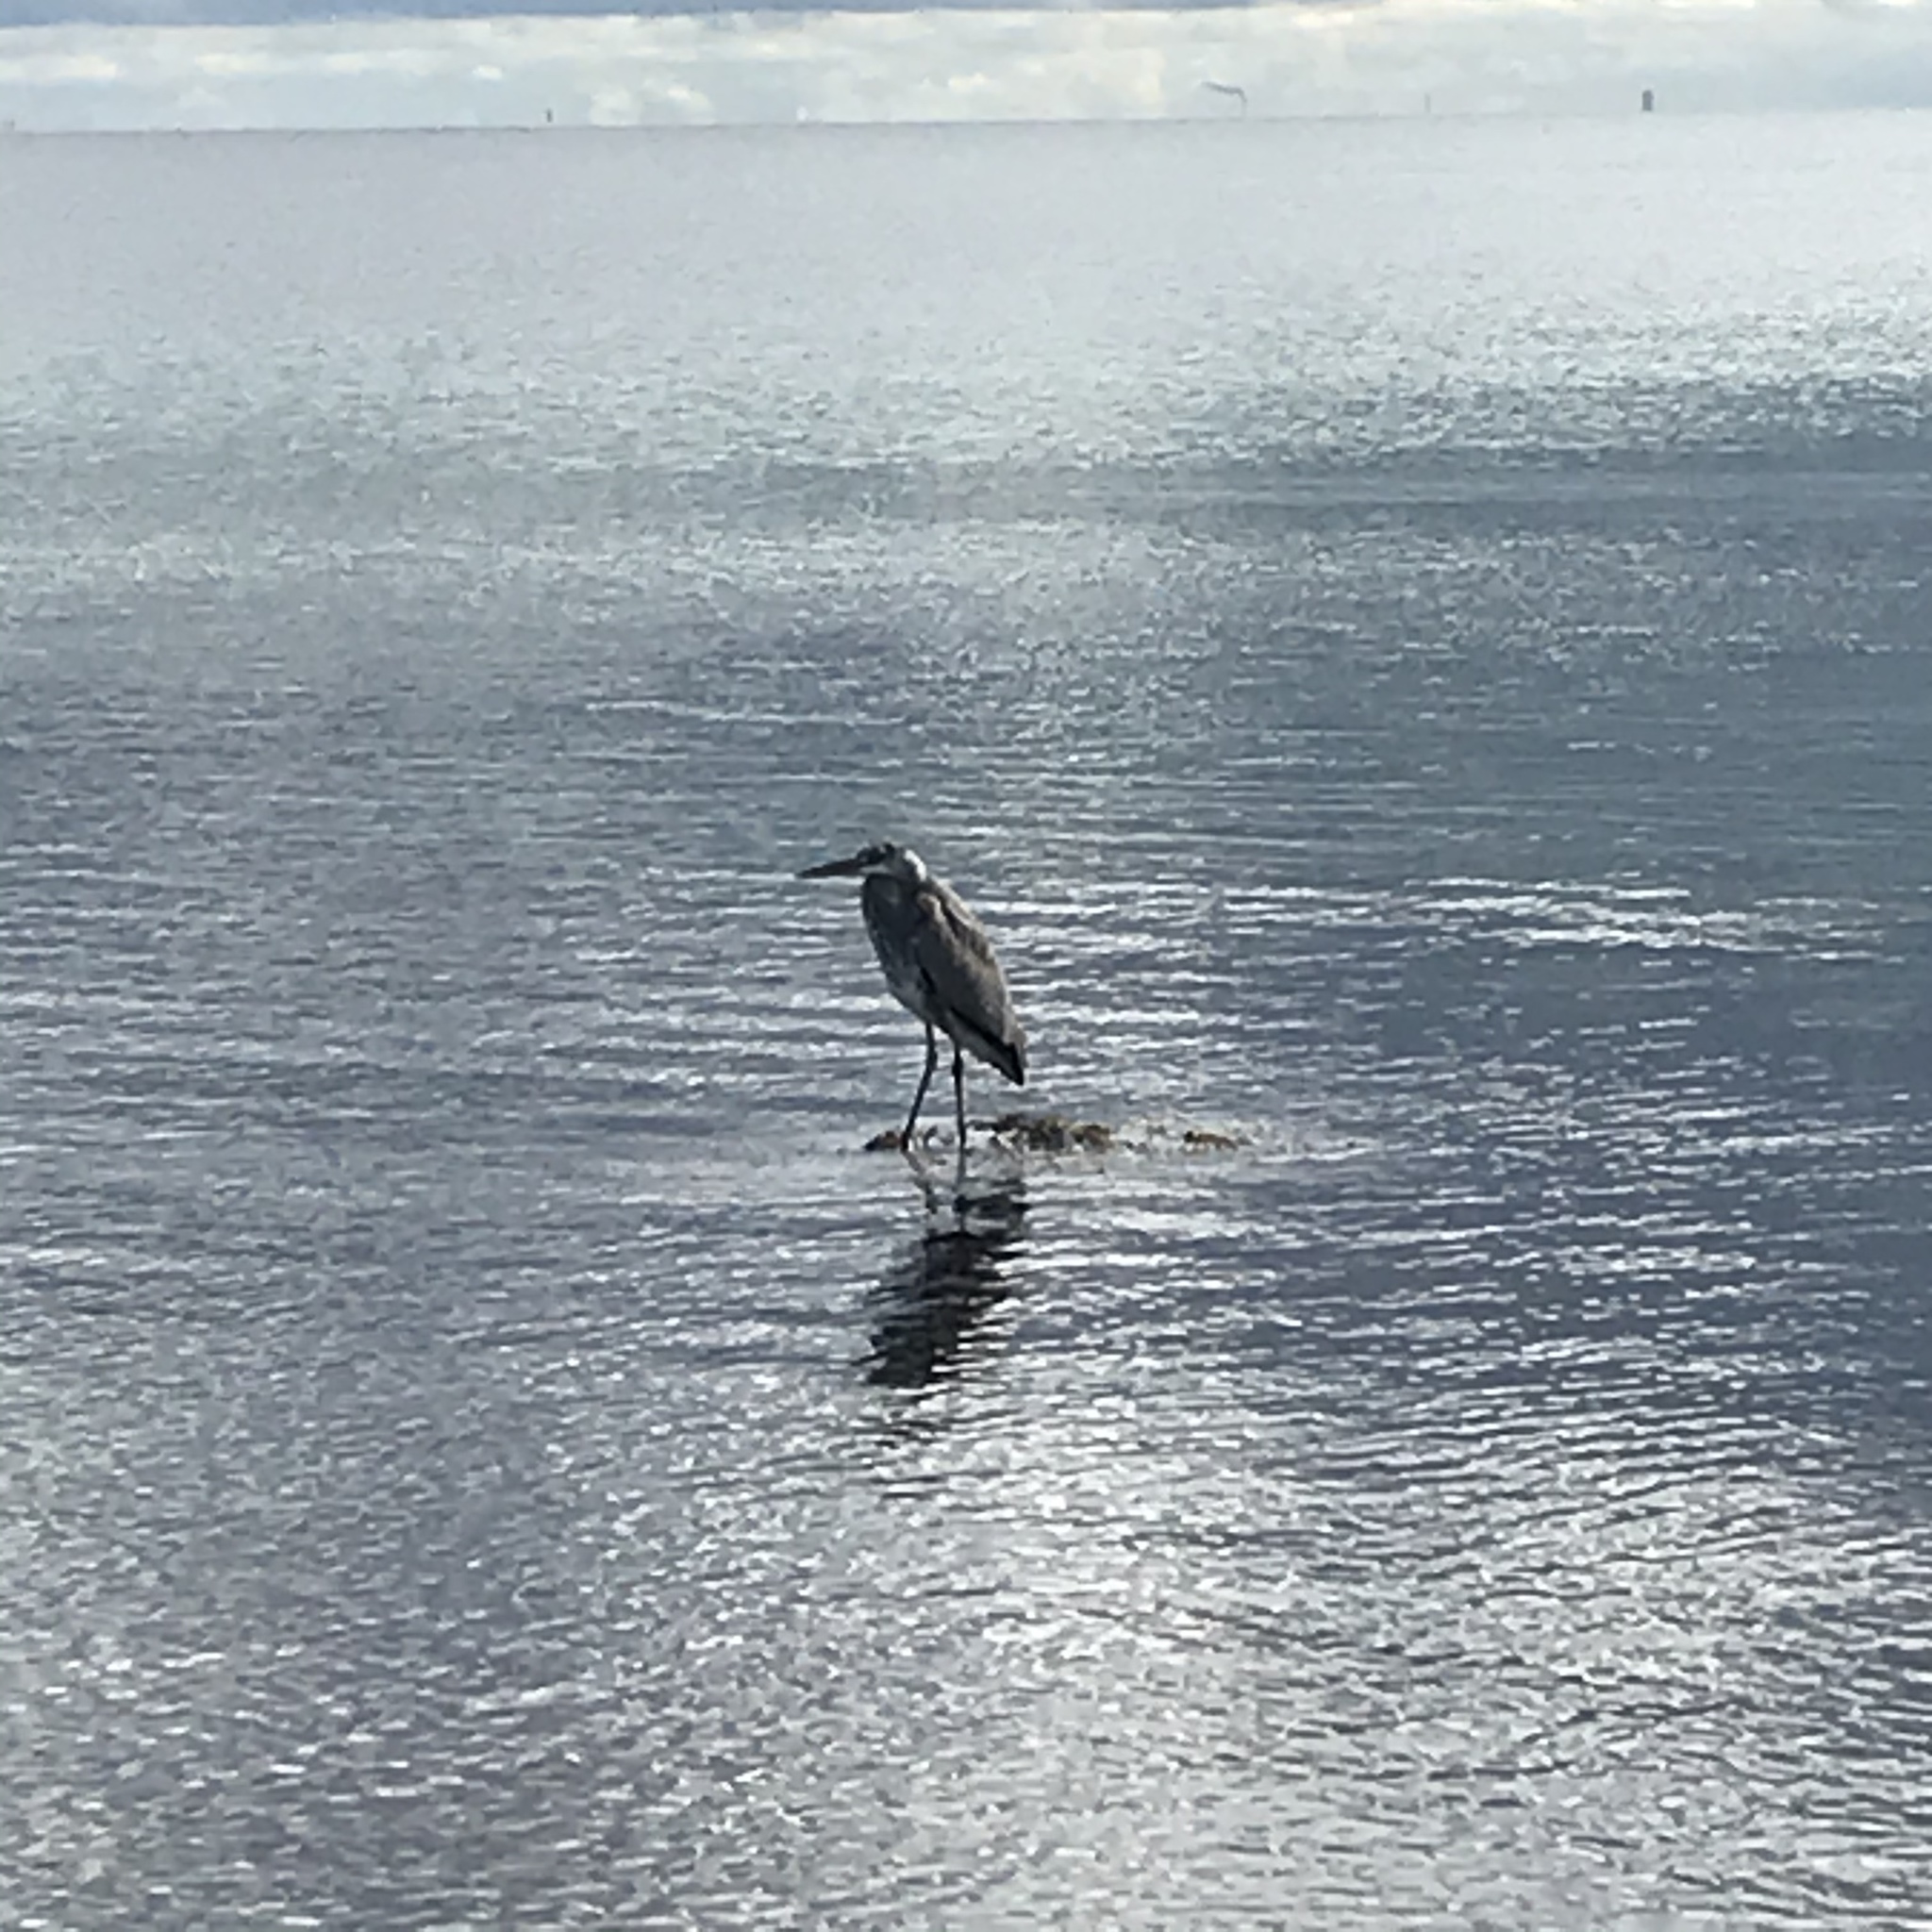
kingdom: Animalia
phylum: Chordata
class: Aves
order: Pelecaniformes
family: Ardeidae
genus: Ardea
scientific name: Ardea cinerea
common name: Grey heron
